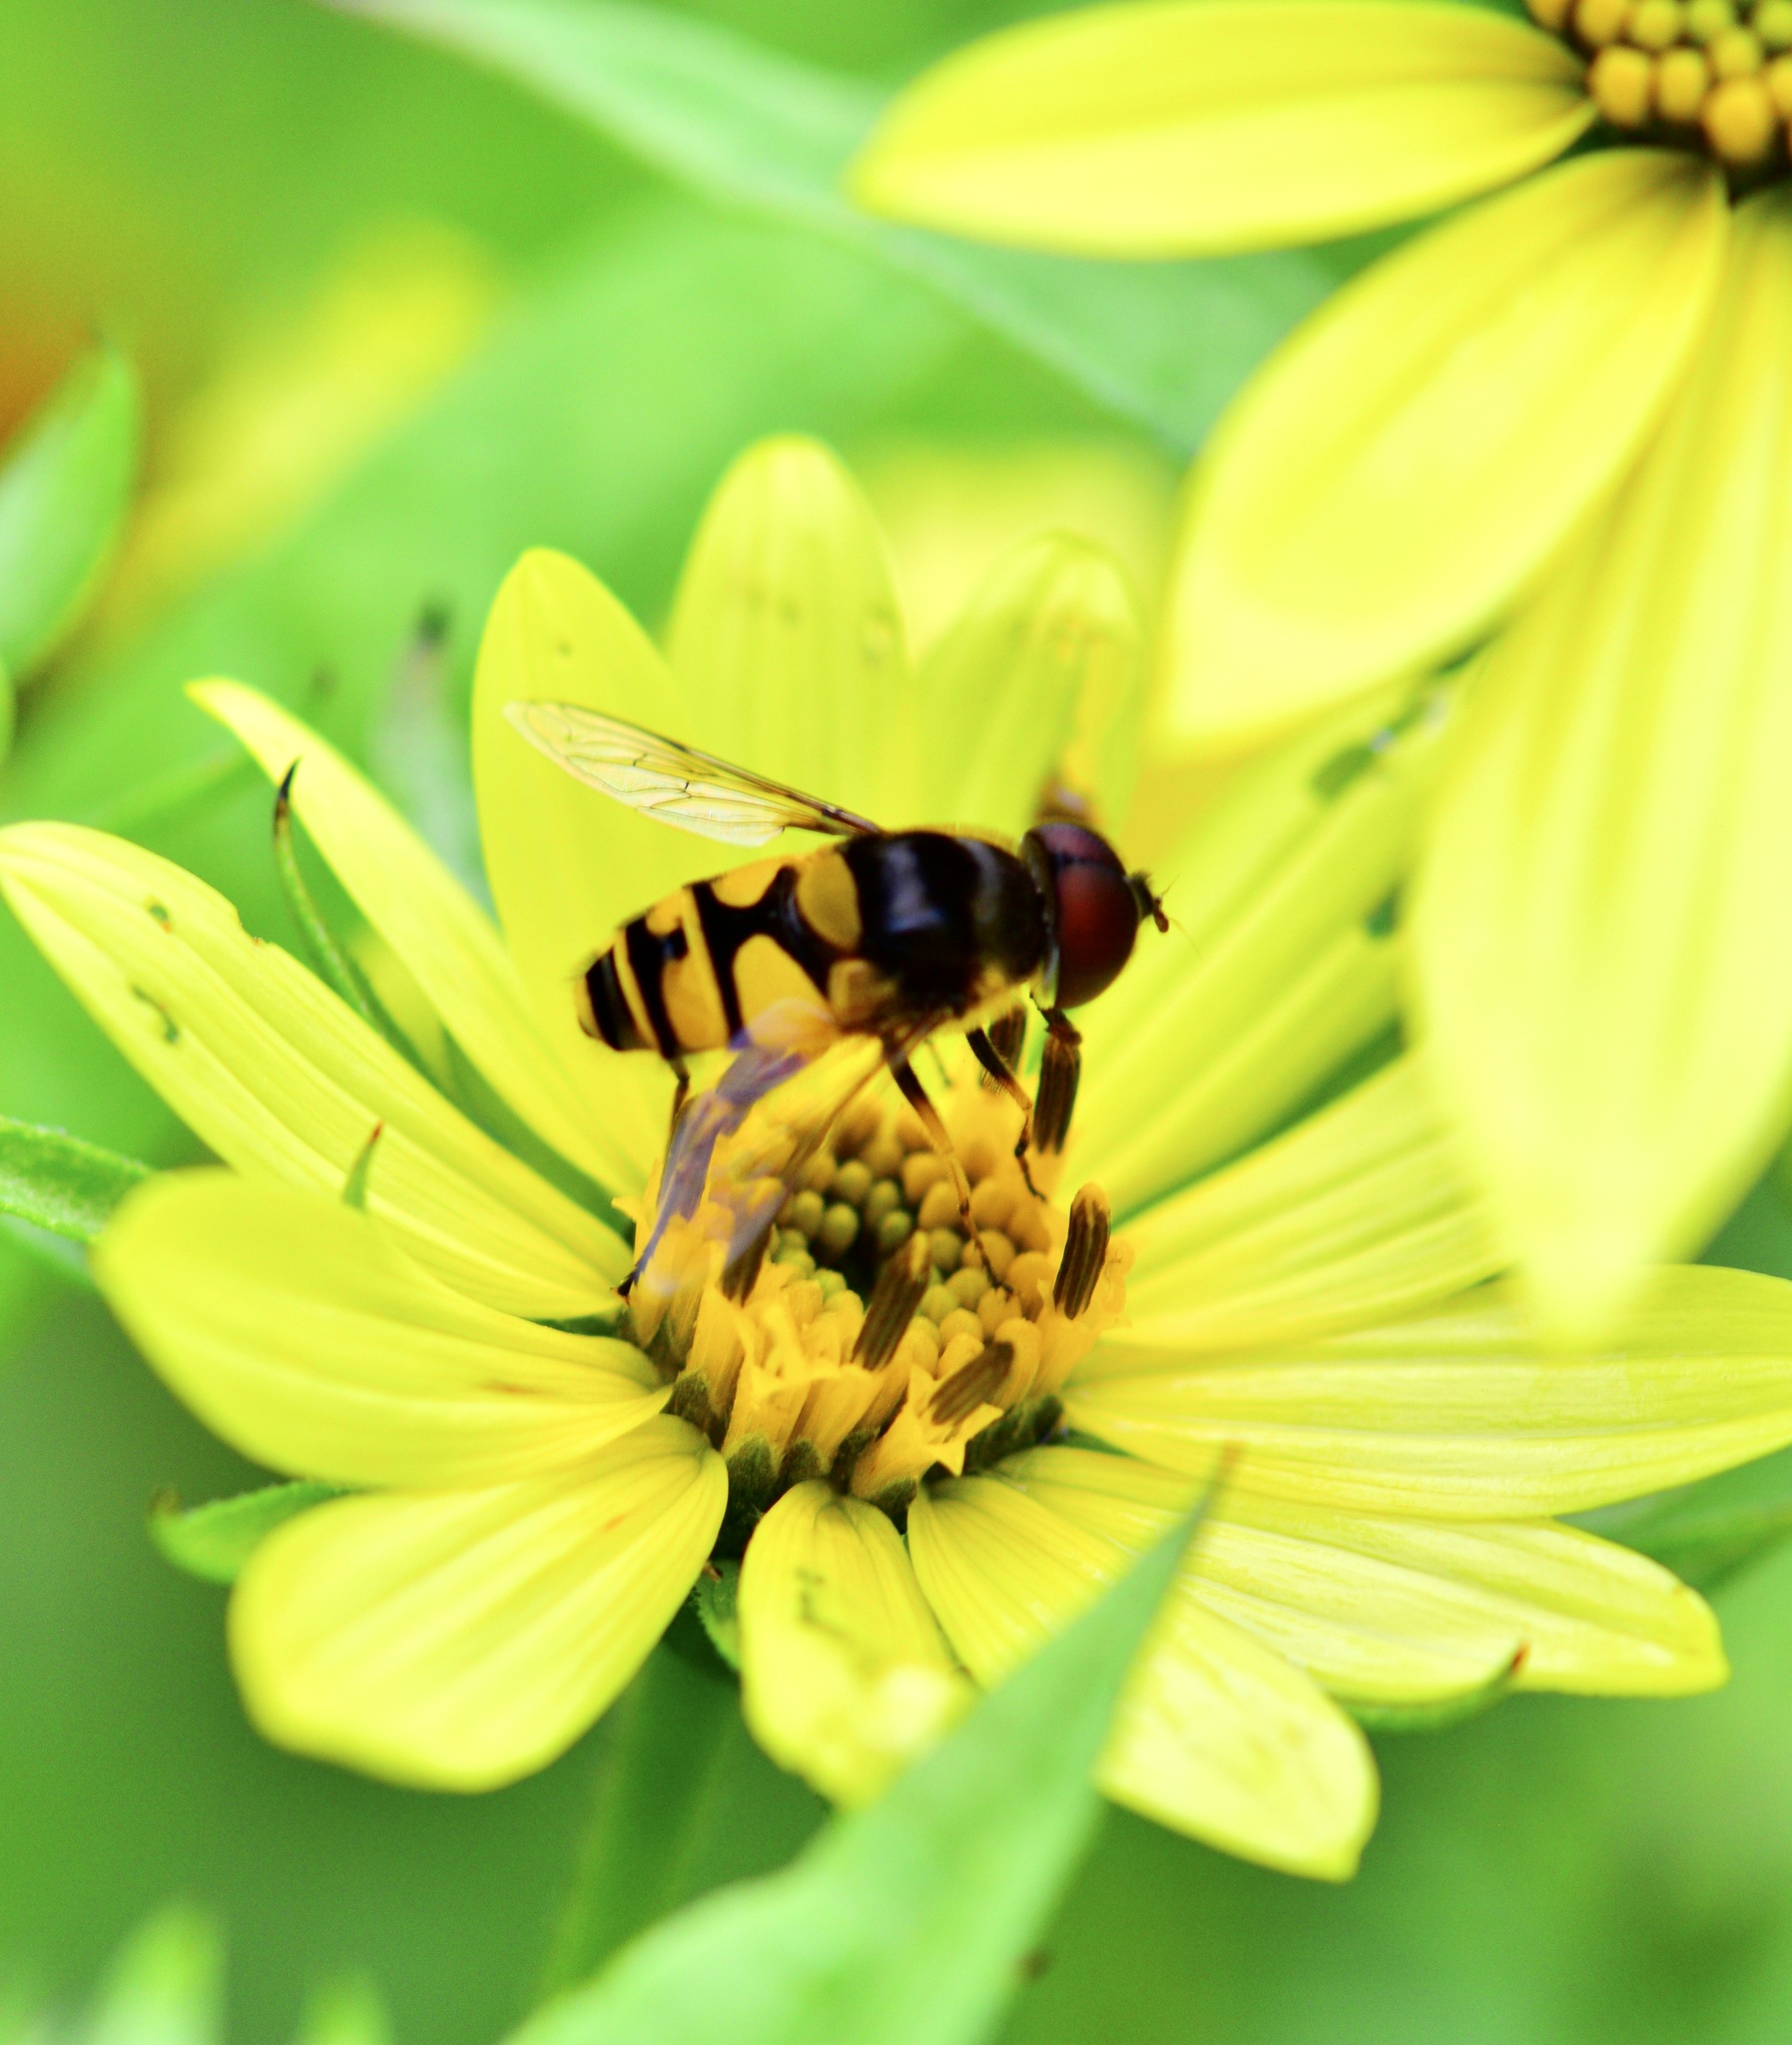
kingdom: Animalia
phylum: Arthropoda
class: Insecta
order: Diptera
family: Syrphidae
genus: Eristalis
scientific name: Eristalis transversa
